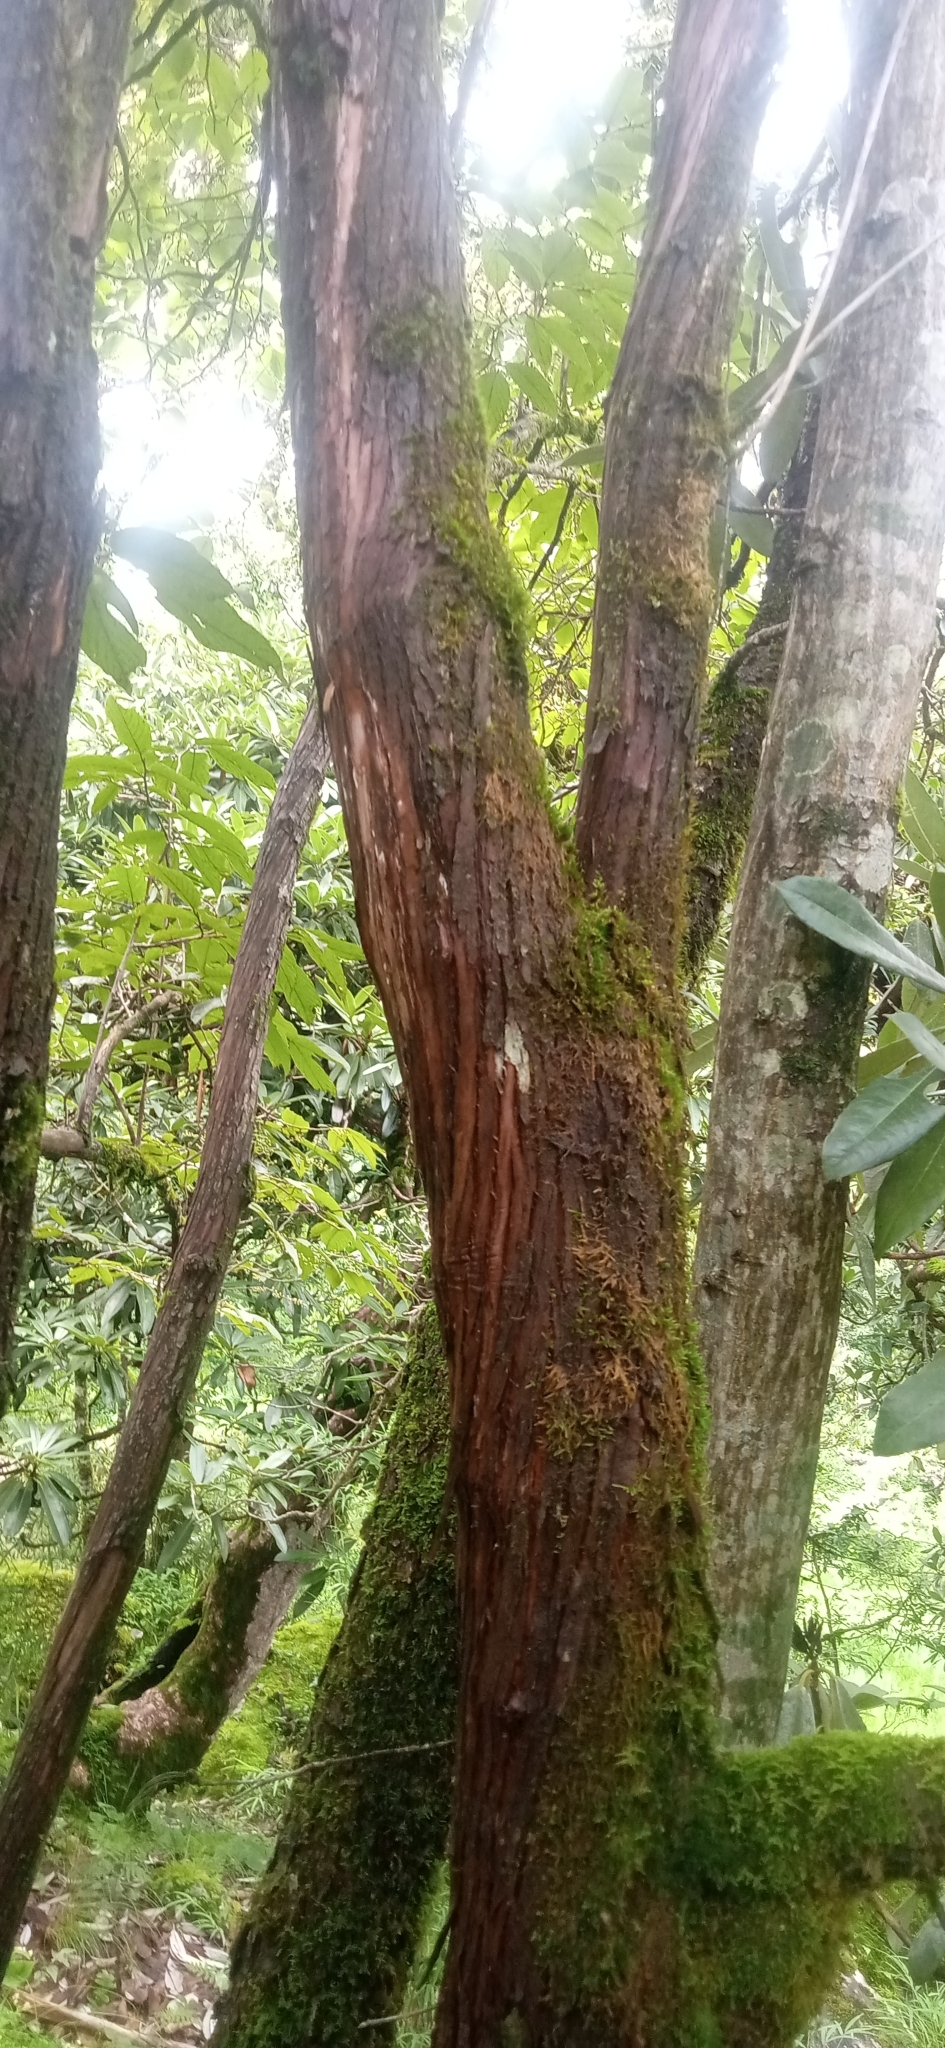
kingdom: Plantae
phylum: Tracheophyta
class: Magnoliopsida
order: Ericales
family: Ericaceae
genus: Lyonia
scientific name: Lyonia ovalifolia
